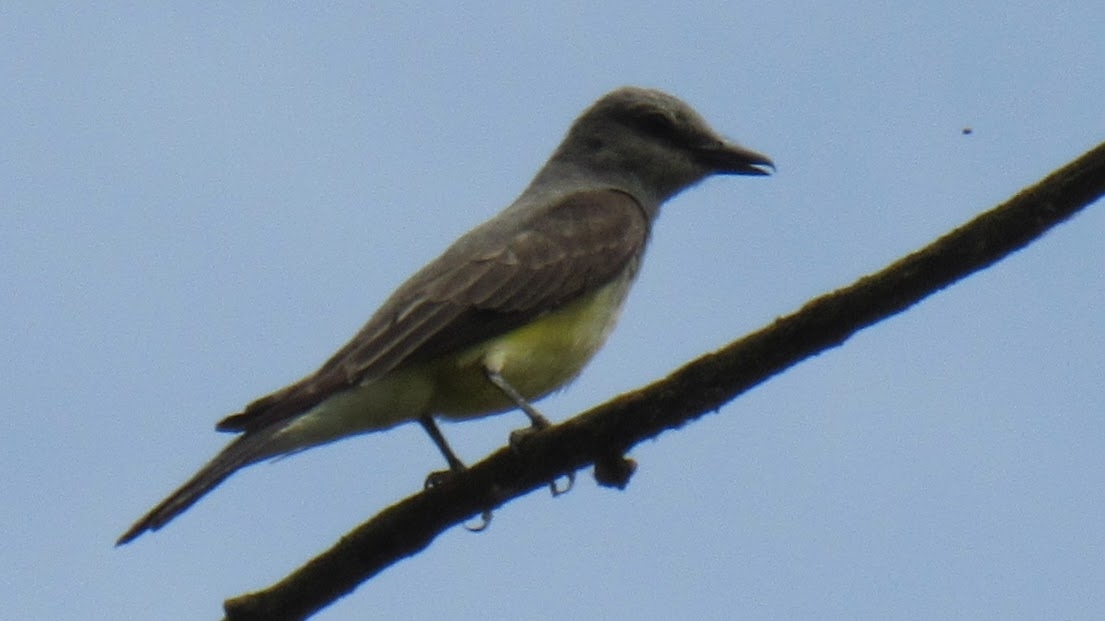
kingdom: Animalia
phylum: Chordata
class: Aves
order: Passeriformes
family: Tyrannidae
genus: Tyrannus
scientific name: Tyrannus verticalis
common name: Western kingbird
